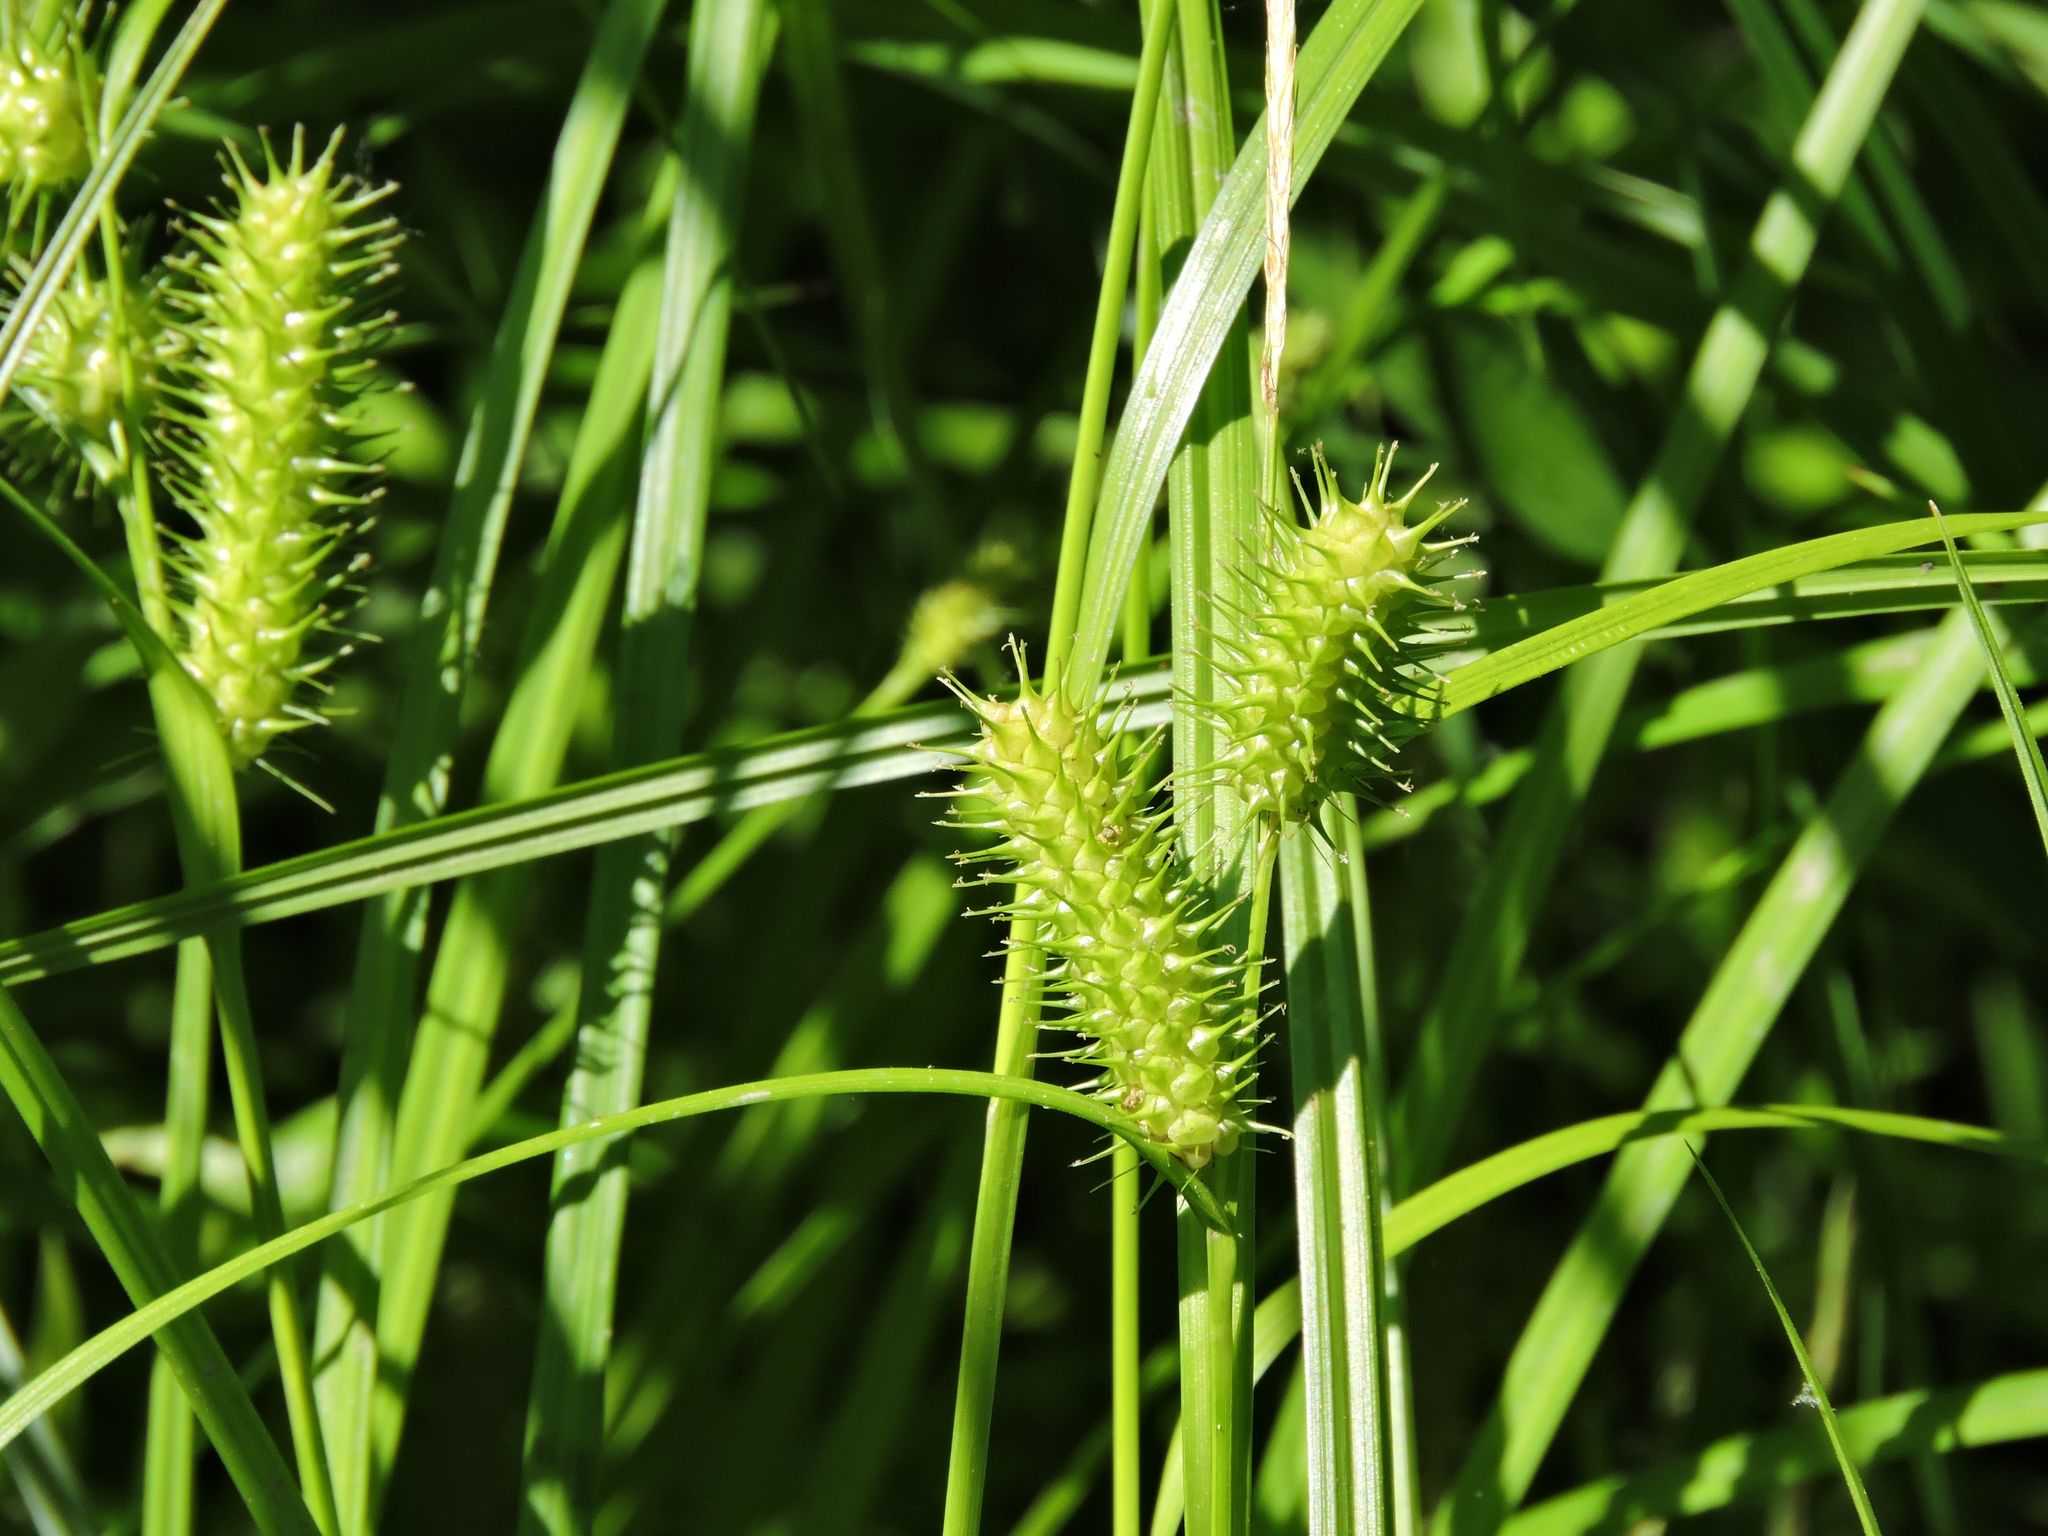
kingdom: Plantae
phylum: Tracheophyta
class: Liliopsida
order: Poales
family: Cyperaceae
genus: Carex
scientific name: Carex lurida
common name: Sallow sedge
